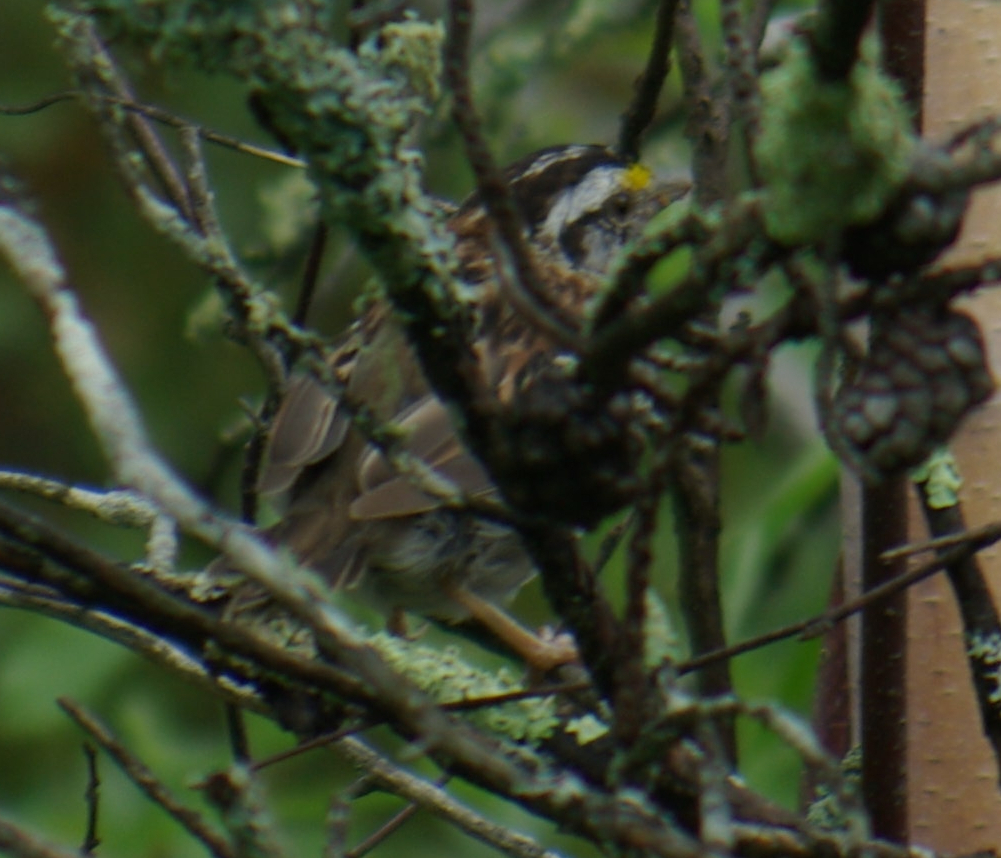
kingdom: Animalia
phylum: Chordata
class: Aves
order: Passeriformes
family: Passerellidae
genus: Zonotrichia
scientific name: Zonotrichia albicollis
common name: White-throated sparrow
